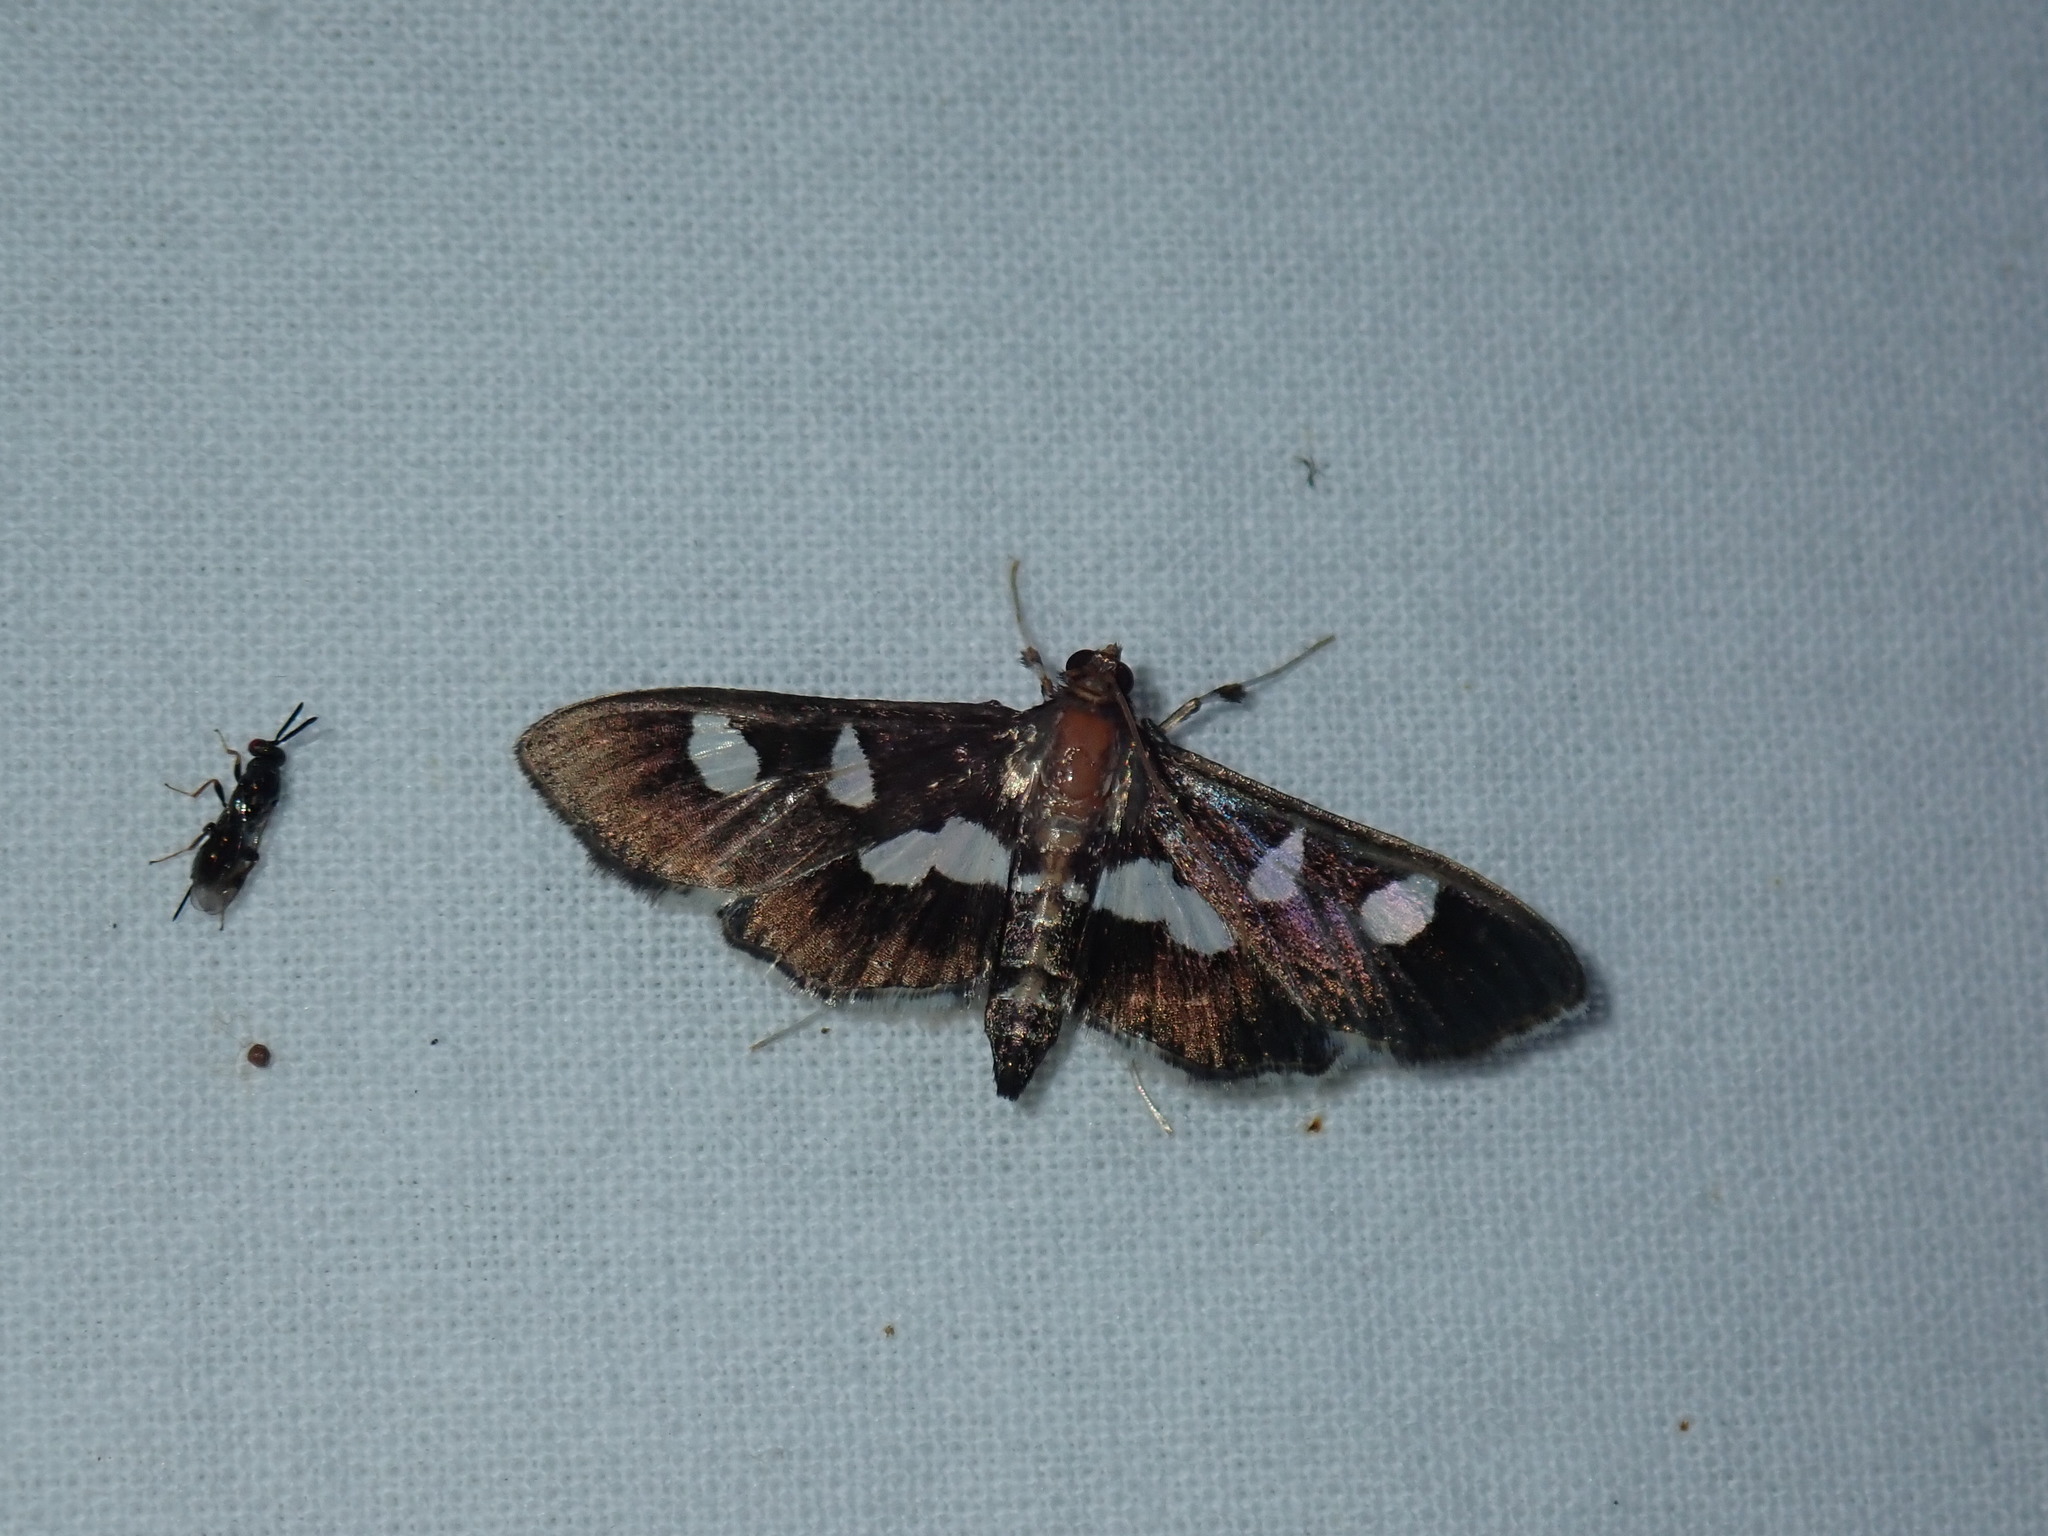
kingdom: Animalia
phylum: Arthropoda
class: Insecta
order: Lepidoptera
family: Crambidae
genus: Desmia
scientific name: Desmia
